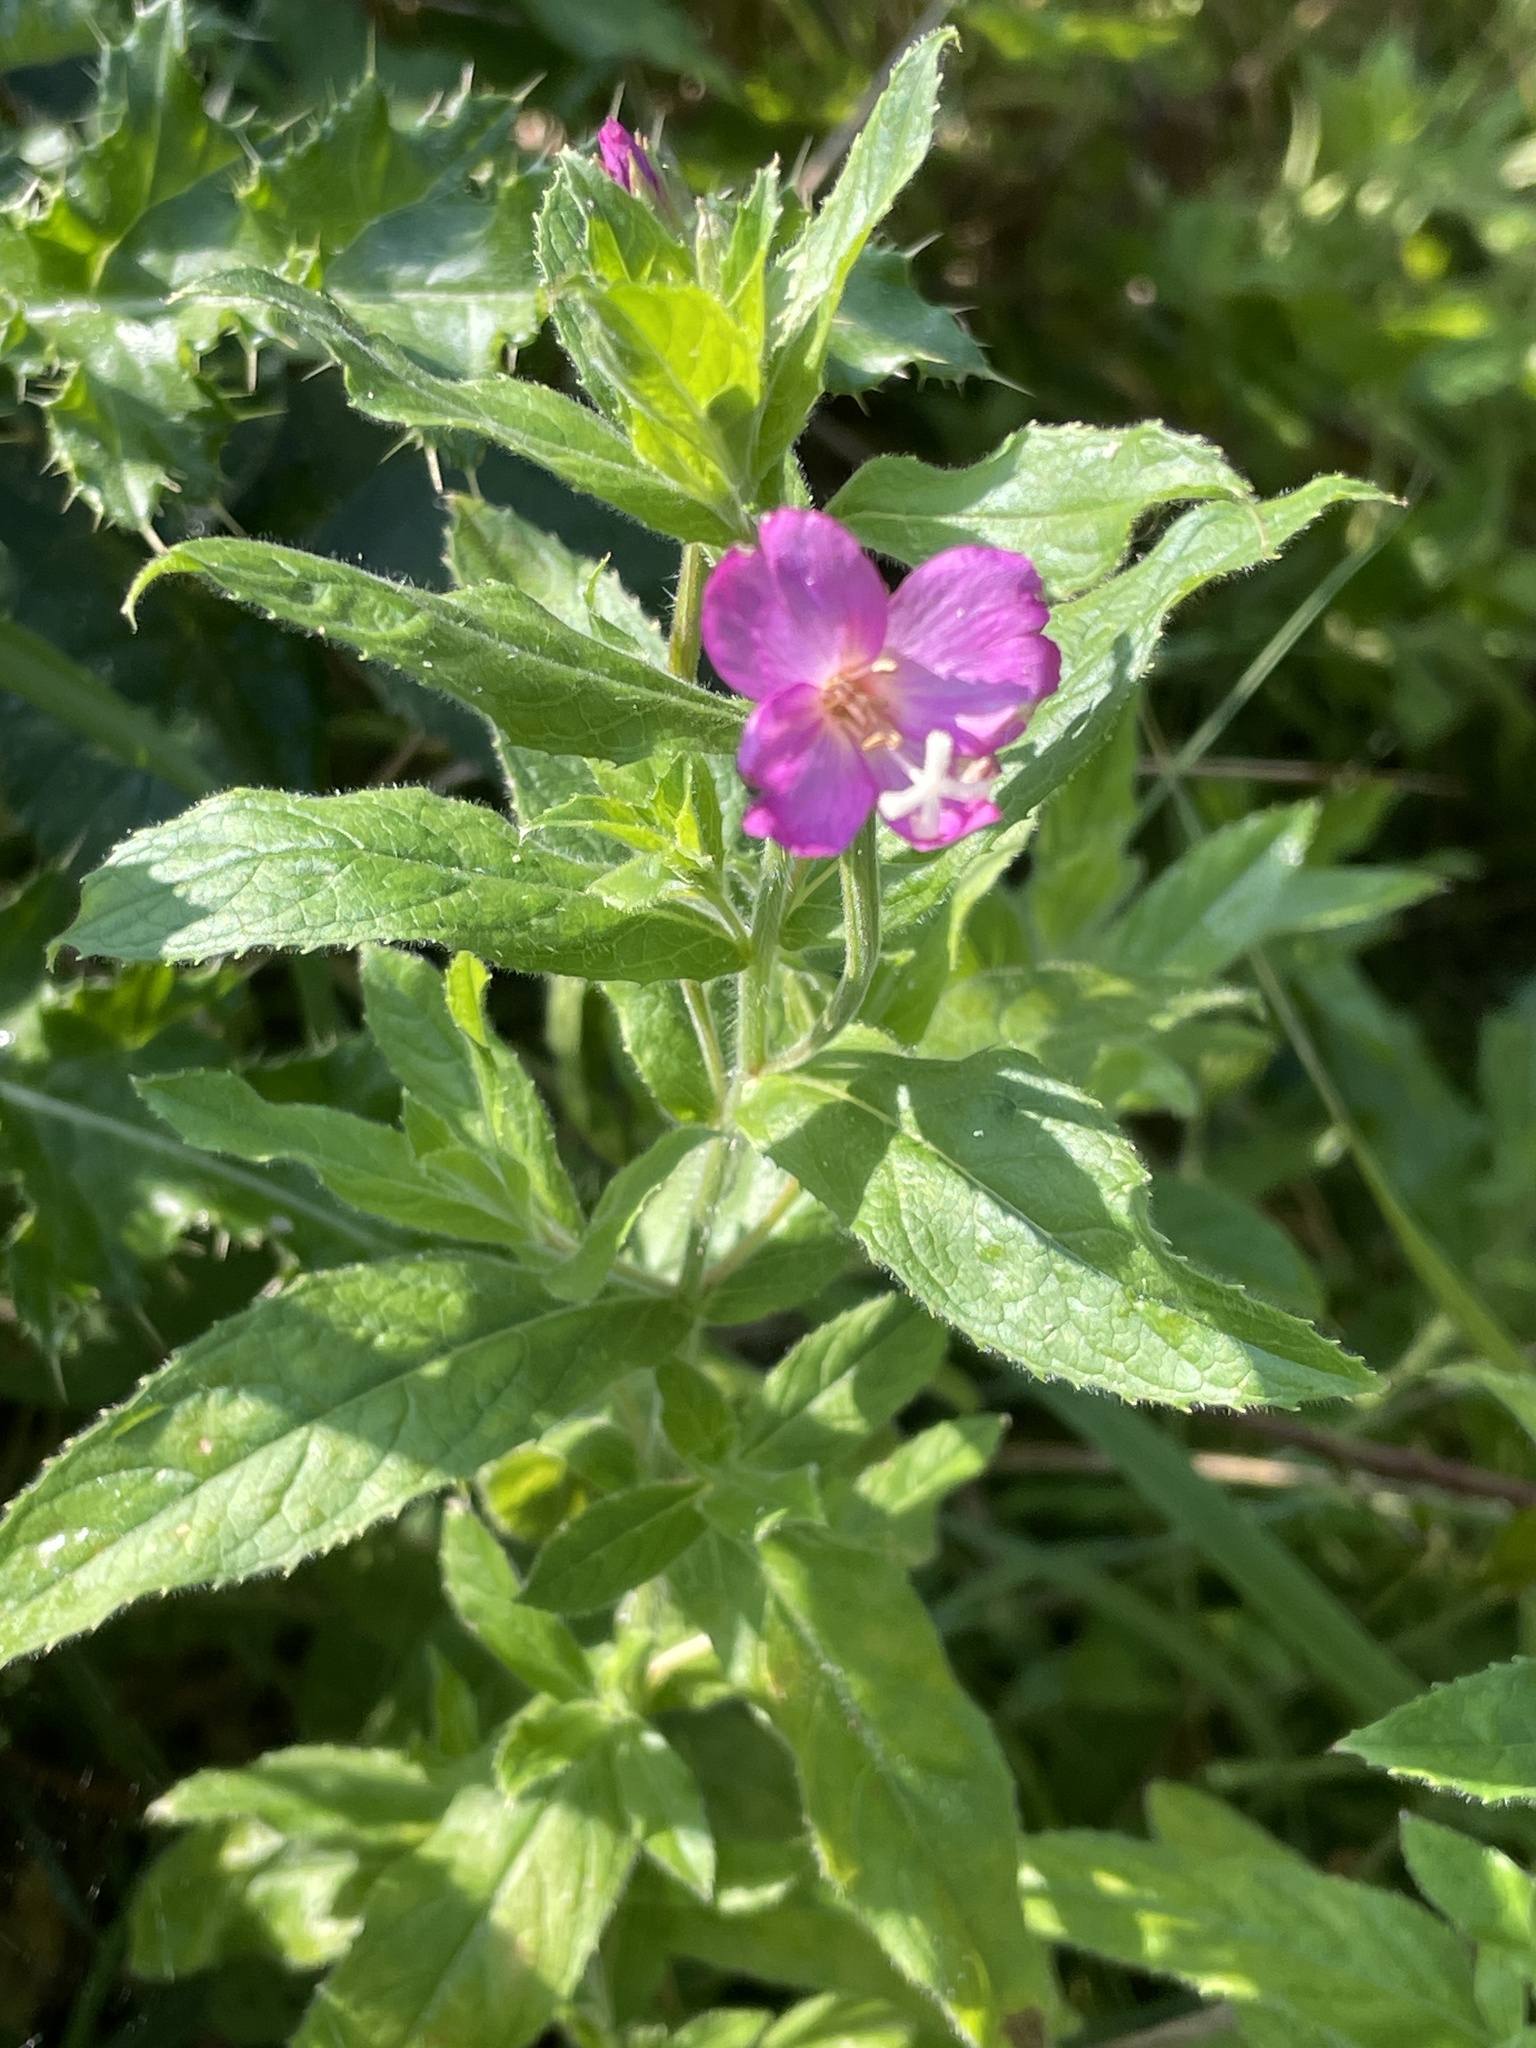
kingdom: Plantae
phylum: Tracheophyta
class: Magnoliopsida
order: Myrtales
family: Onagraceae
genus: Epilobium
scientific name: Epilobium hirsutum
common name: Great willowherb
